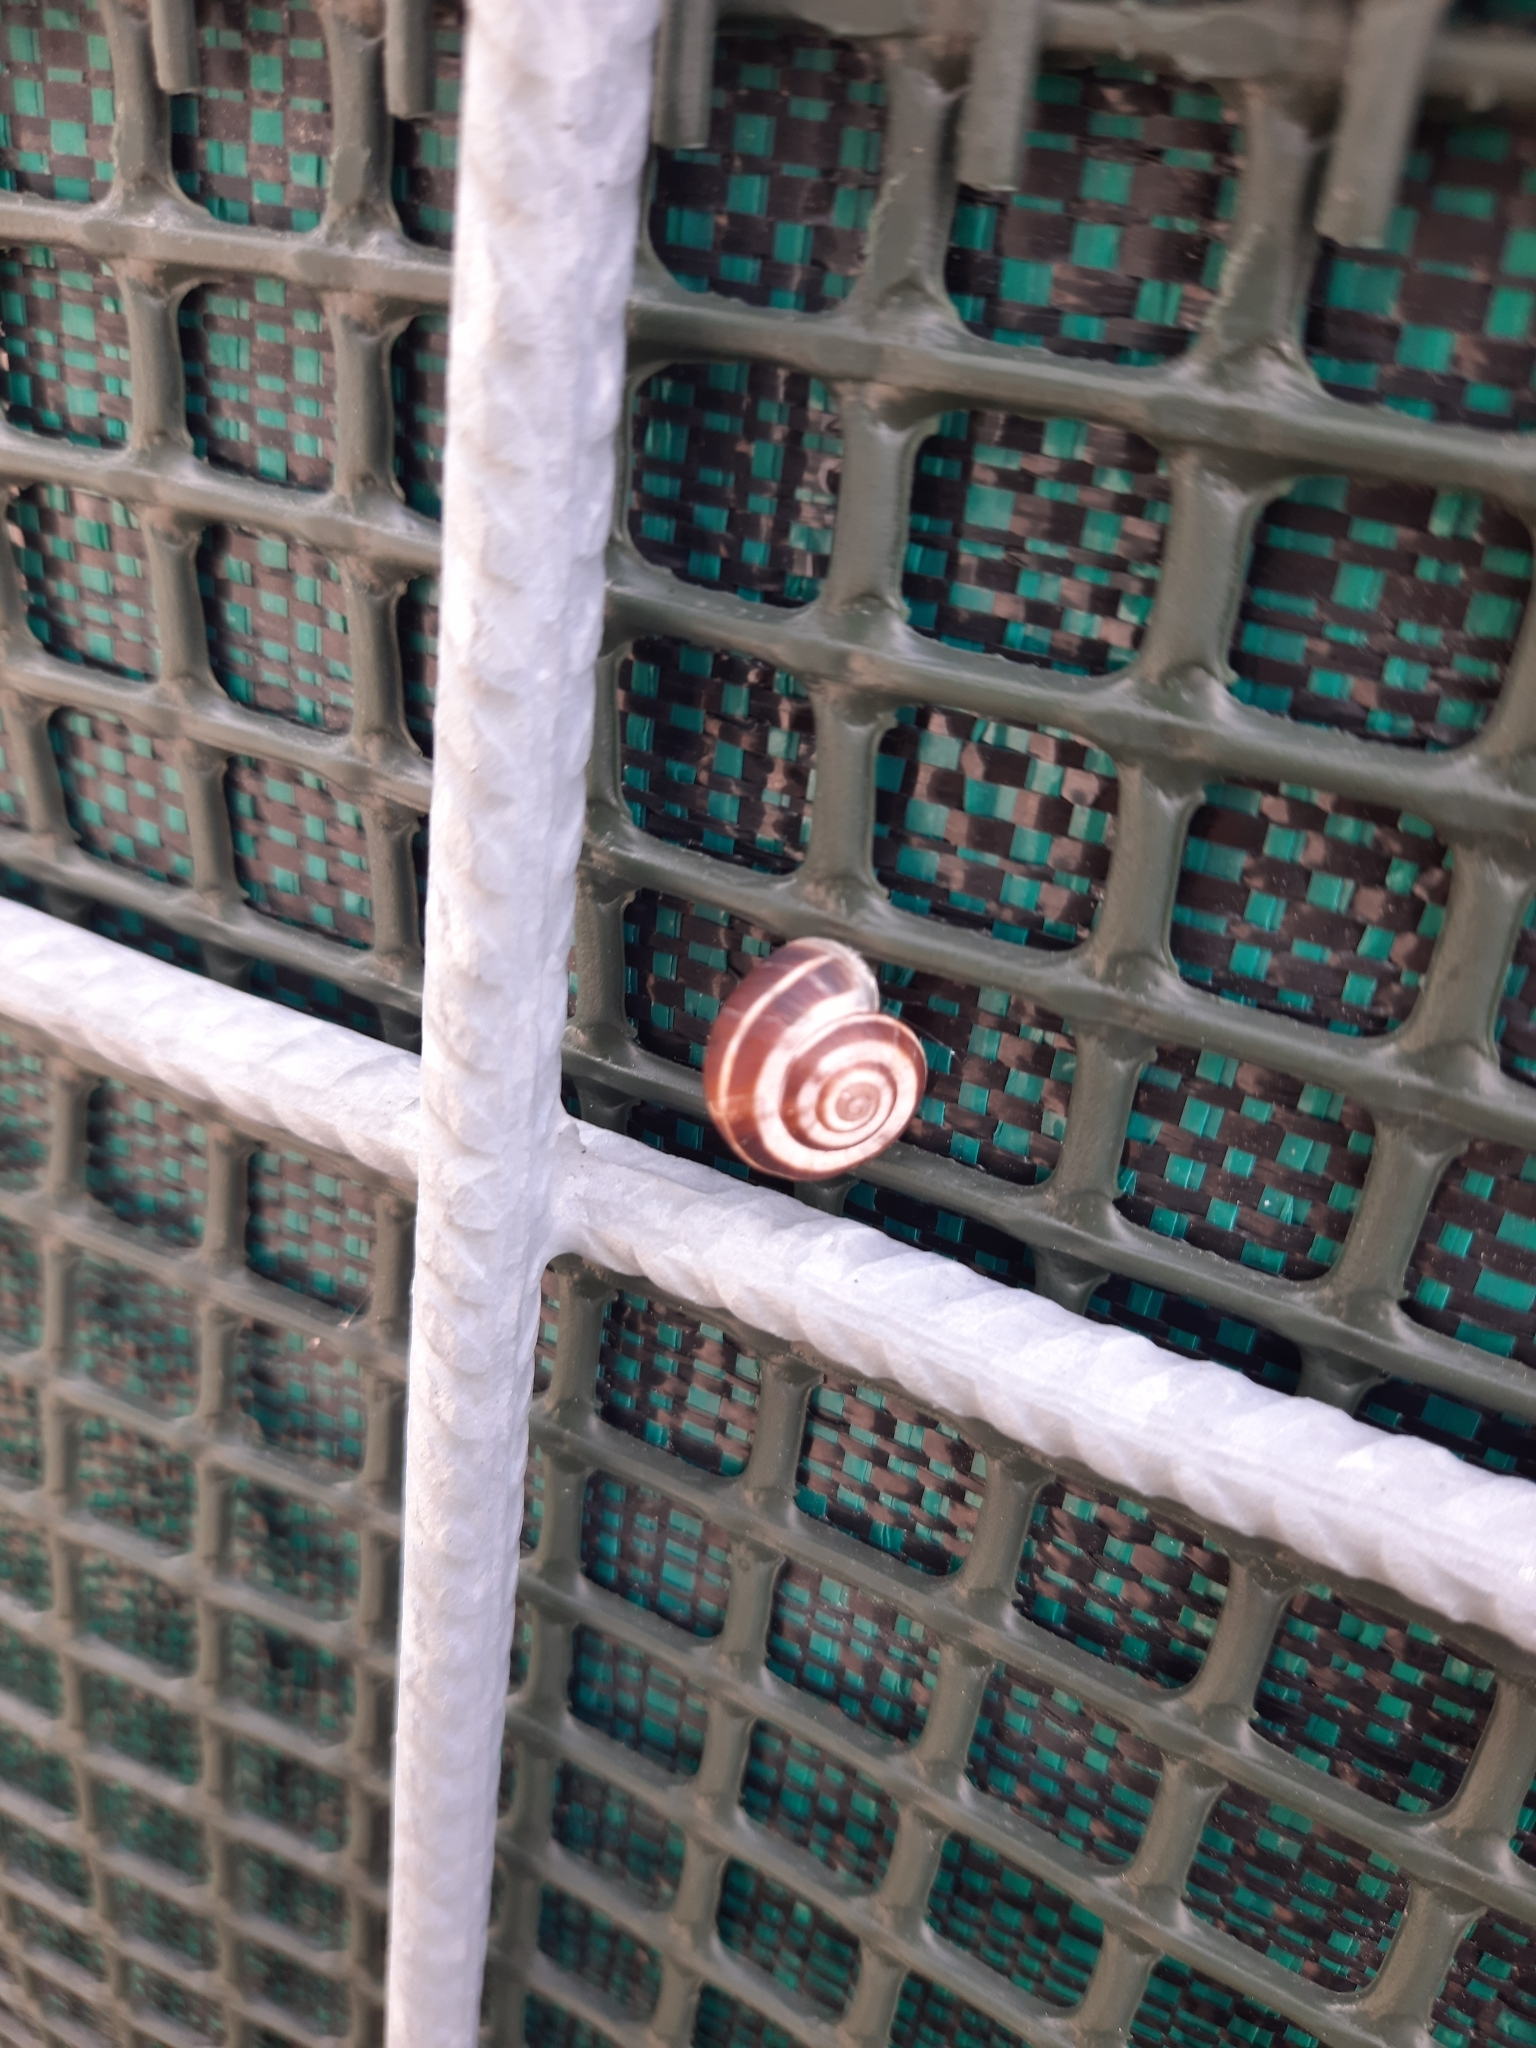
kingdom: Animalia
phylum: Mollusca
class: Gastropoda
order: Stylommatophora
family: Geomitridae
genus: Xerolenta
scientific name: Xerolenta obvia
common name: White heath snail
